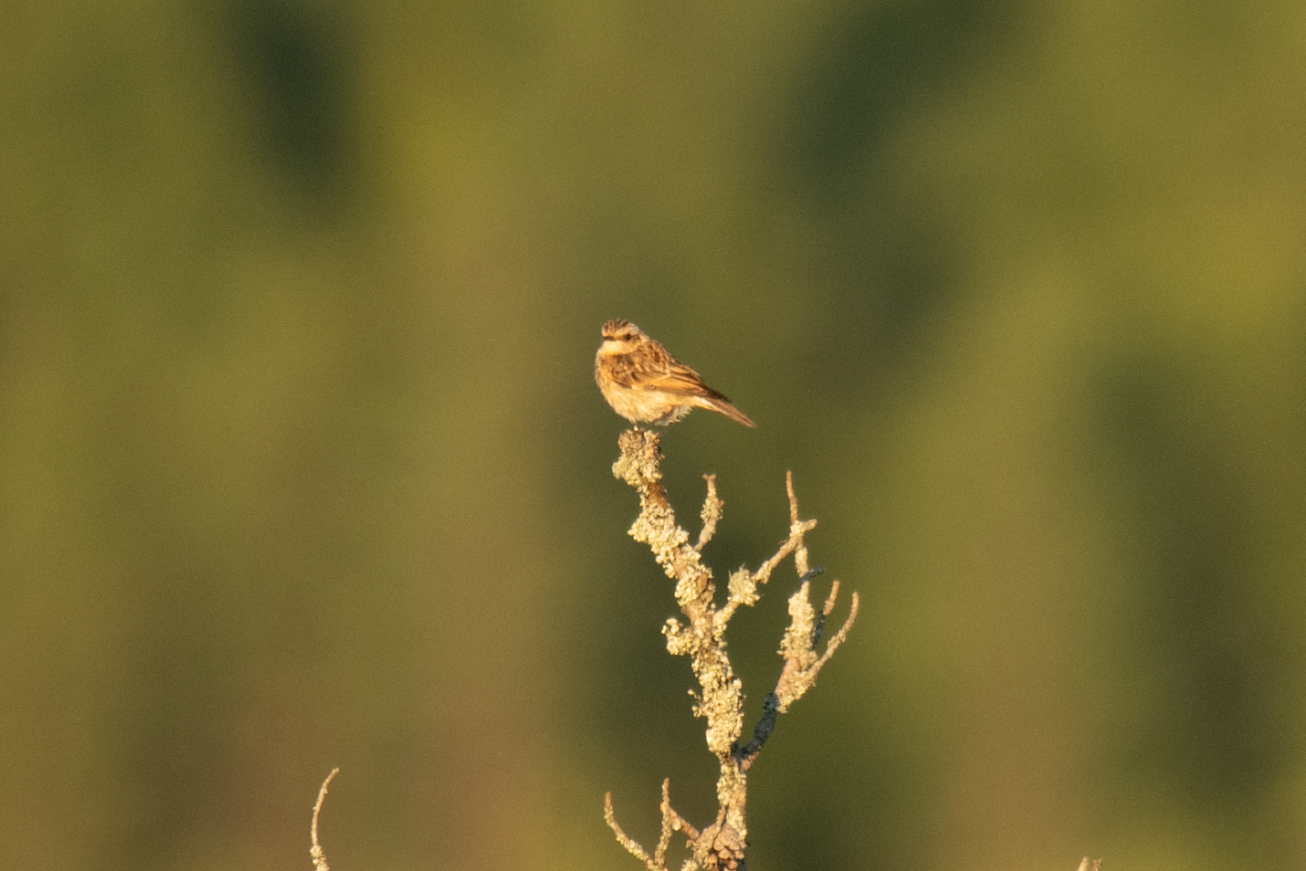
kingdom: Animalia
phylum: Chordata
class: Aves
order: Passeriformes
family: Muscicapidae
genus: Saxicola
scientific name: Saxicola rubetra
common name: Whinchat
